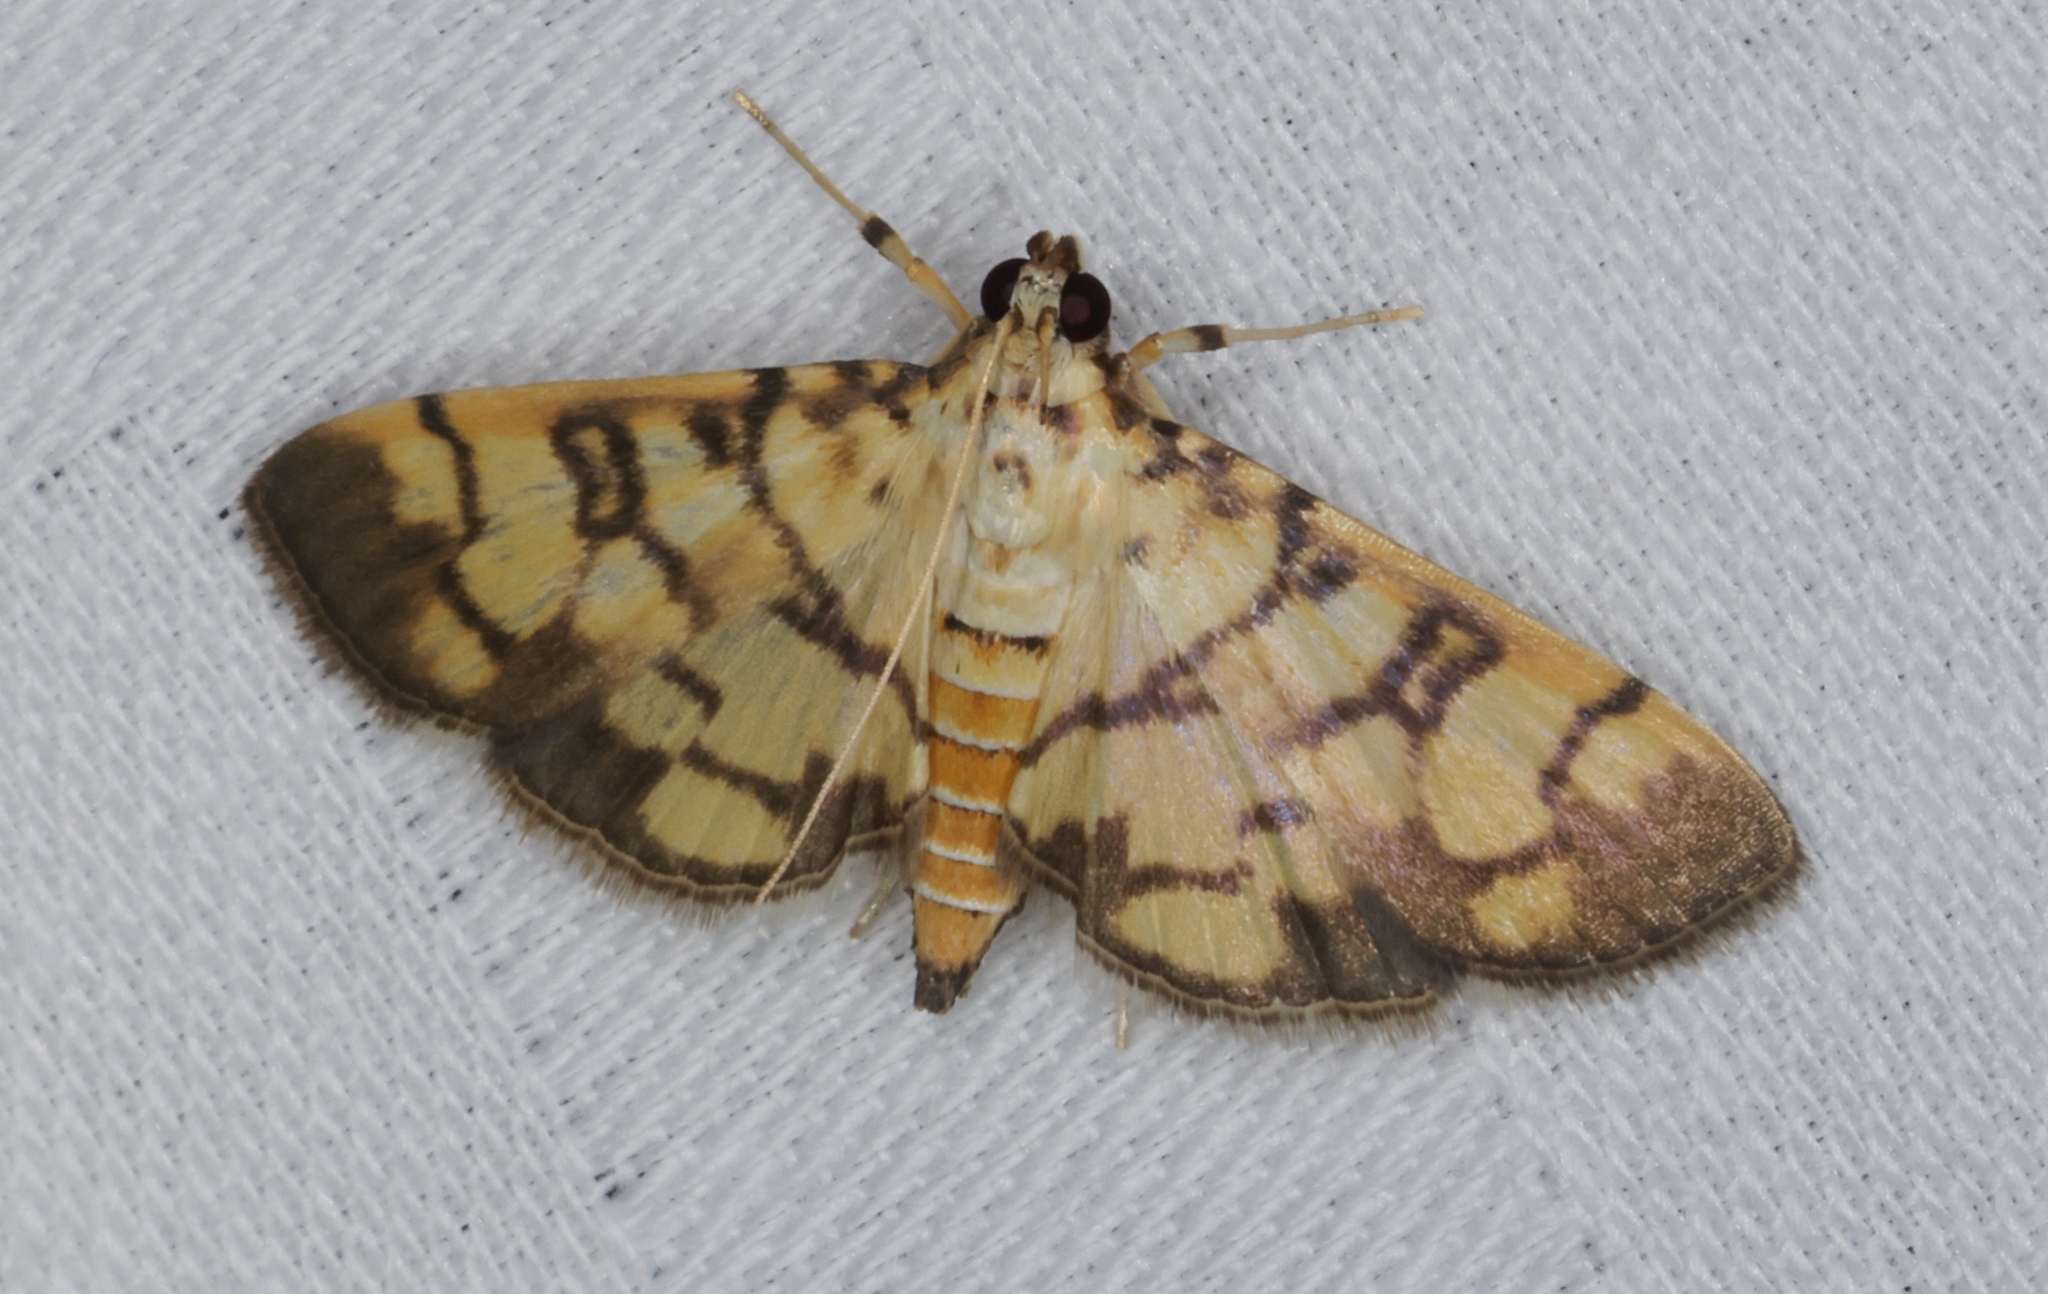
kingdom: Animalia
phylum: Arthropoda
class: Insecta
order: Lepidoptera
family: Crambidae
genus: Lygropia
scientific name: Lygropia distorta
